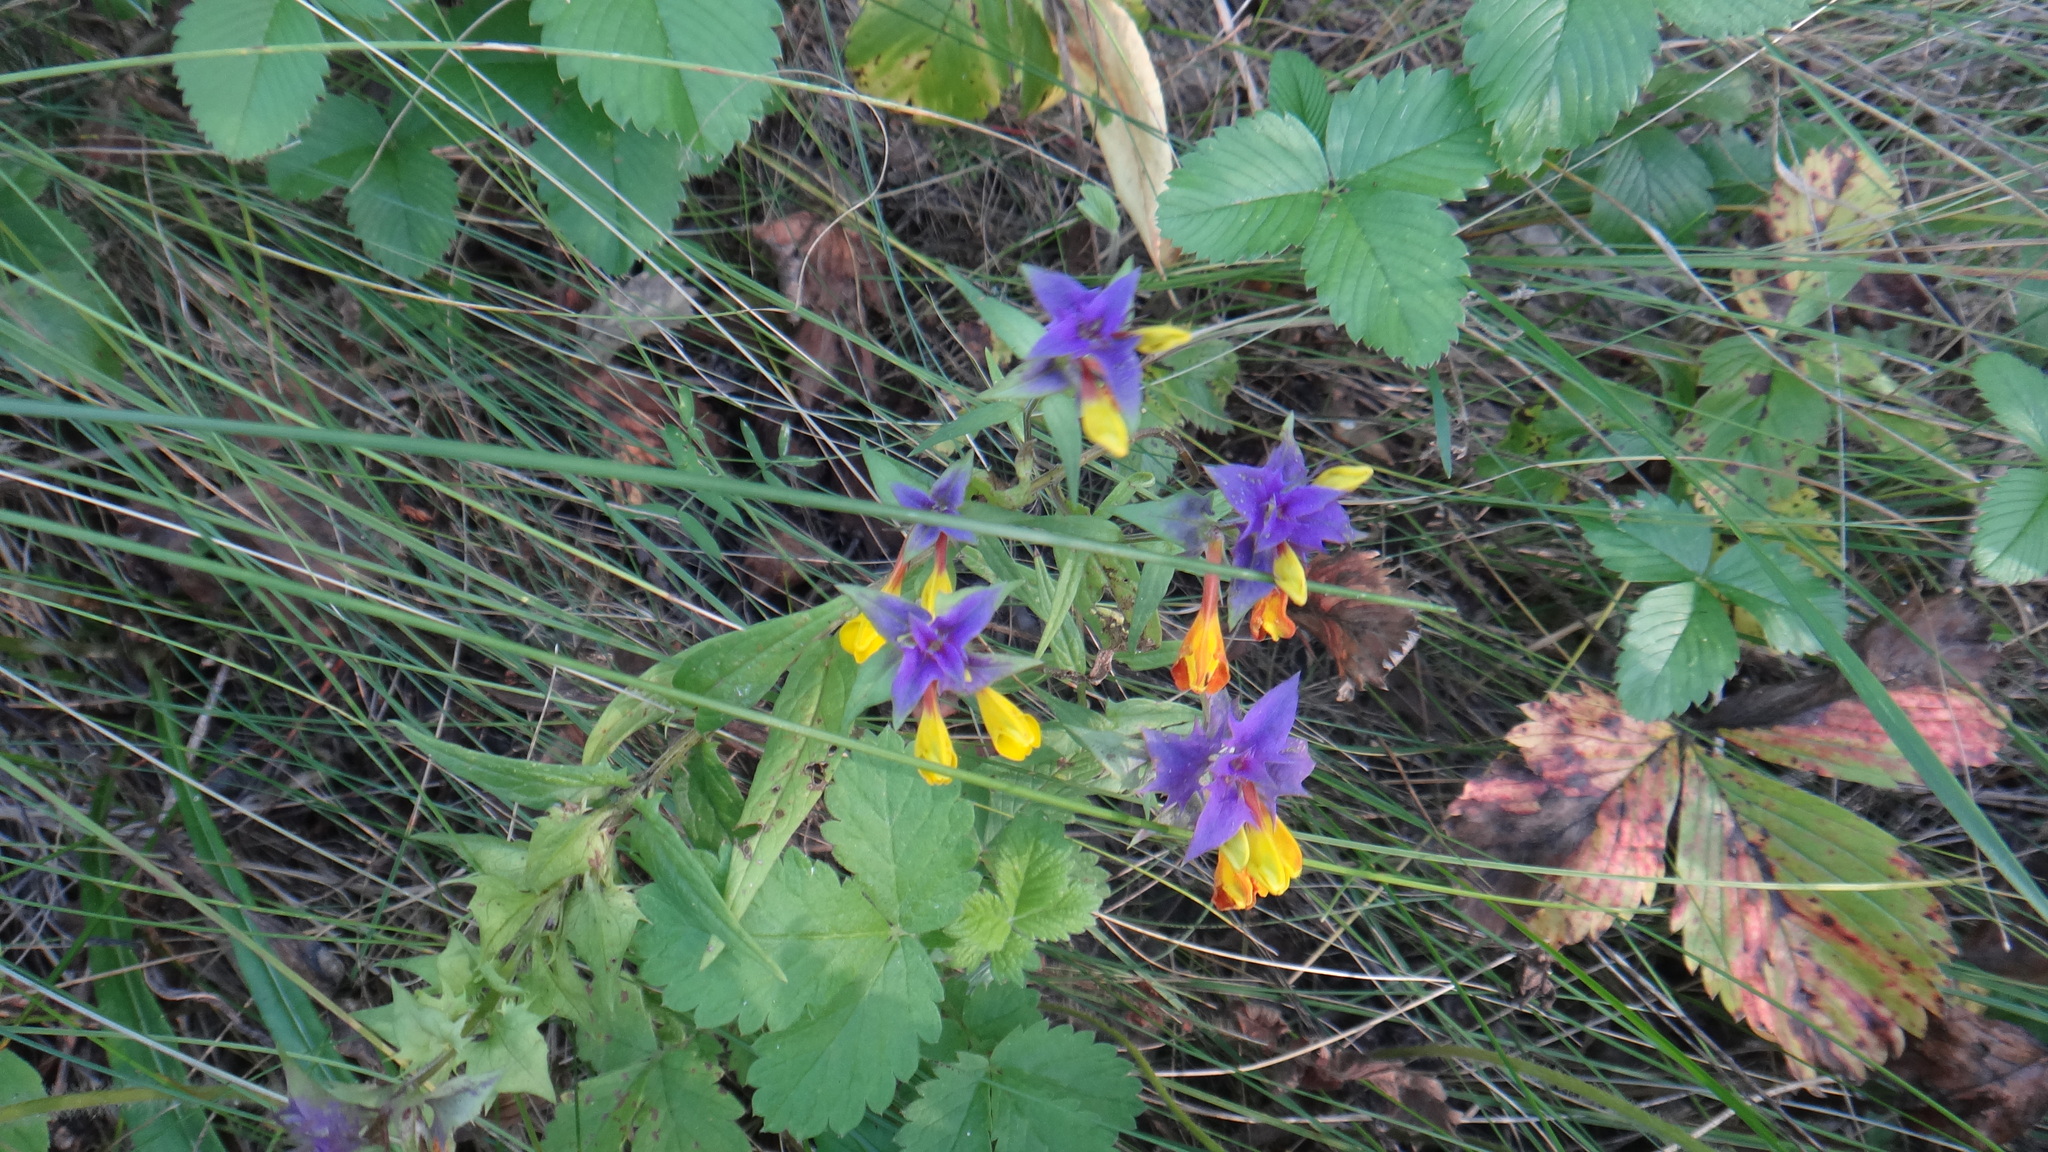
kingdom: Plantae
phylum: Tracheophyta
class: Magnoliopsida
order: Lamiales
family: Orobanchaceae
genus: Melampyrum
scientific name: Melampyrum nemorosum
